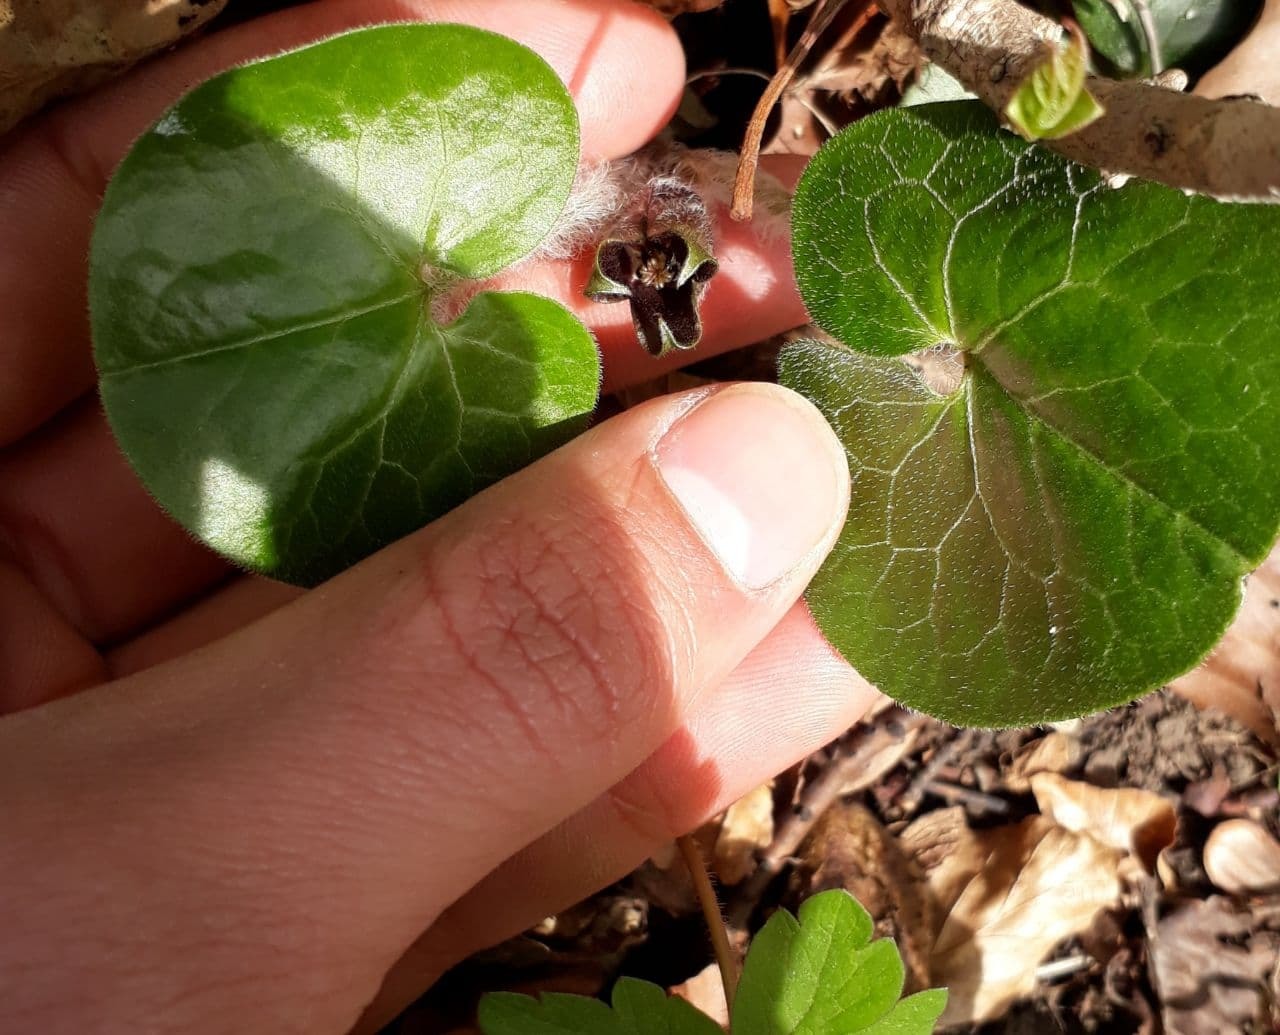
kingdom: Plantae
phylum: Tracheophyta
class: Magnoliopsida
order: Piperales
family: Aristolochiaceae
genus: Asarum
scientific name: Asarum europaeum
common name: Asarabacca
